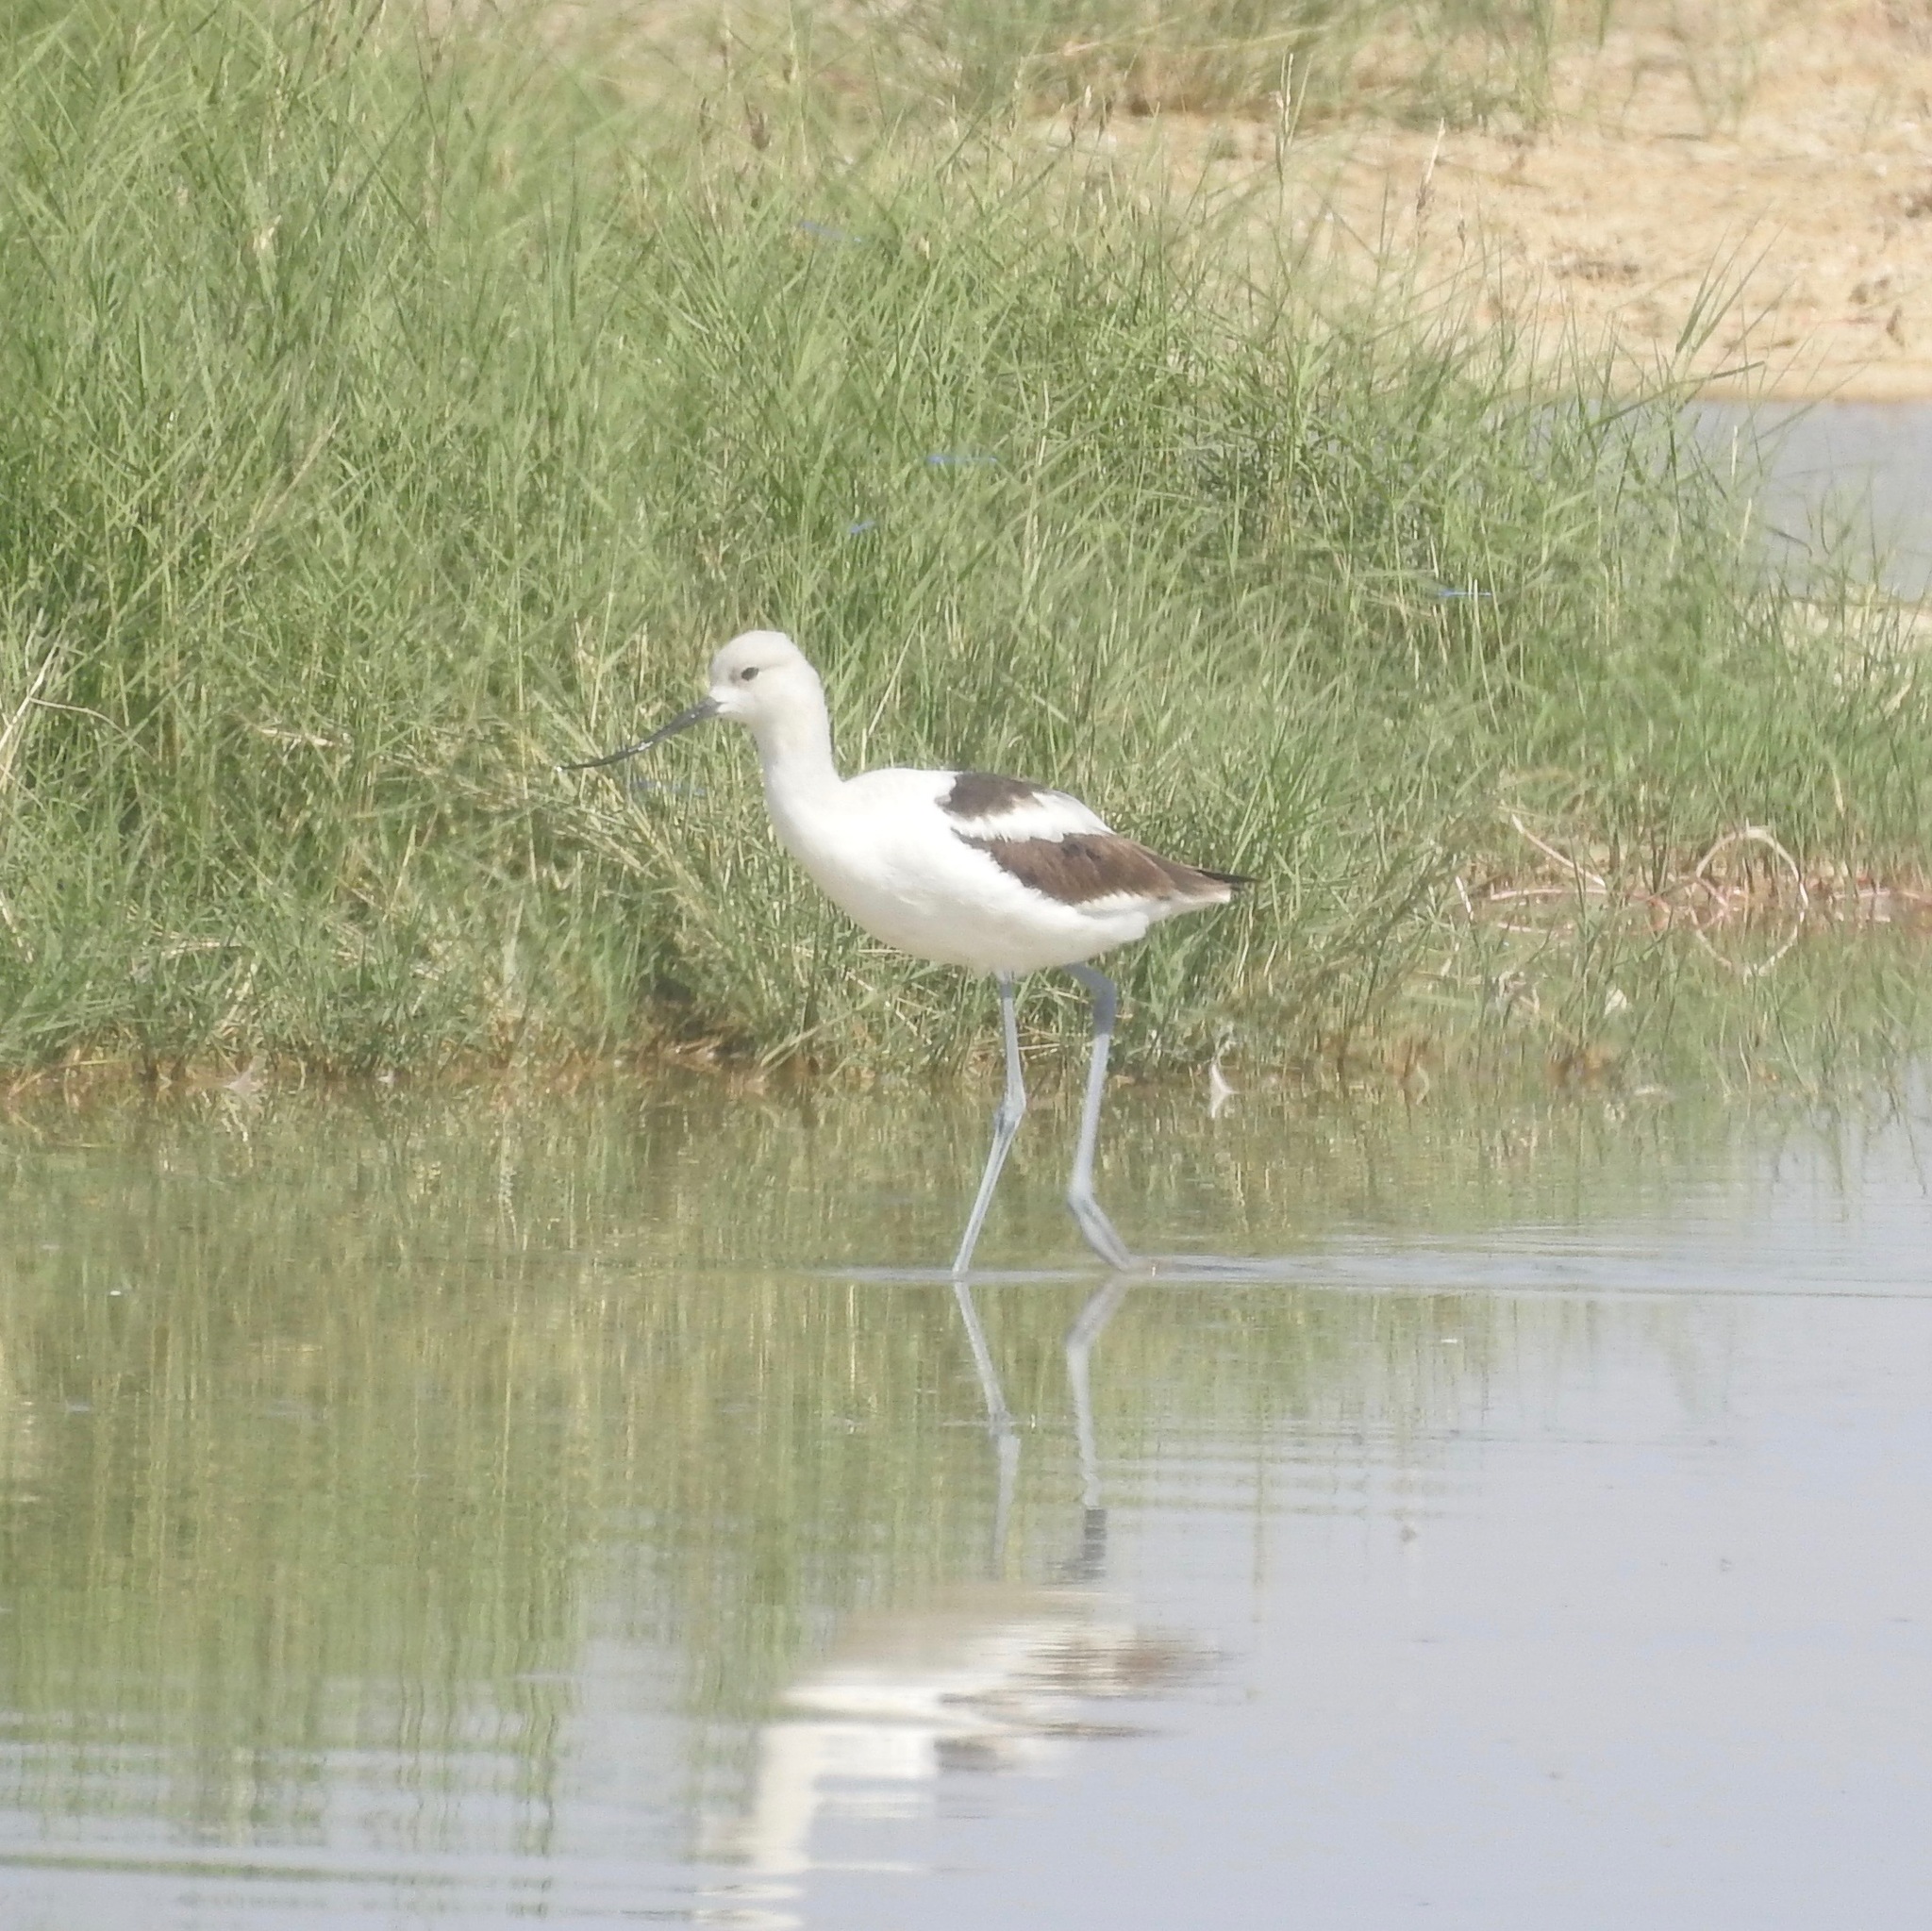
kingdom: Animalia
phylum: Chordata
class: Aves
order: Charadriiformes
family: Recurvirostridae
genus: Recurvirostra
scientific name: Recurvirostra americana
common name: American avocet
